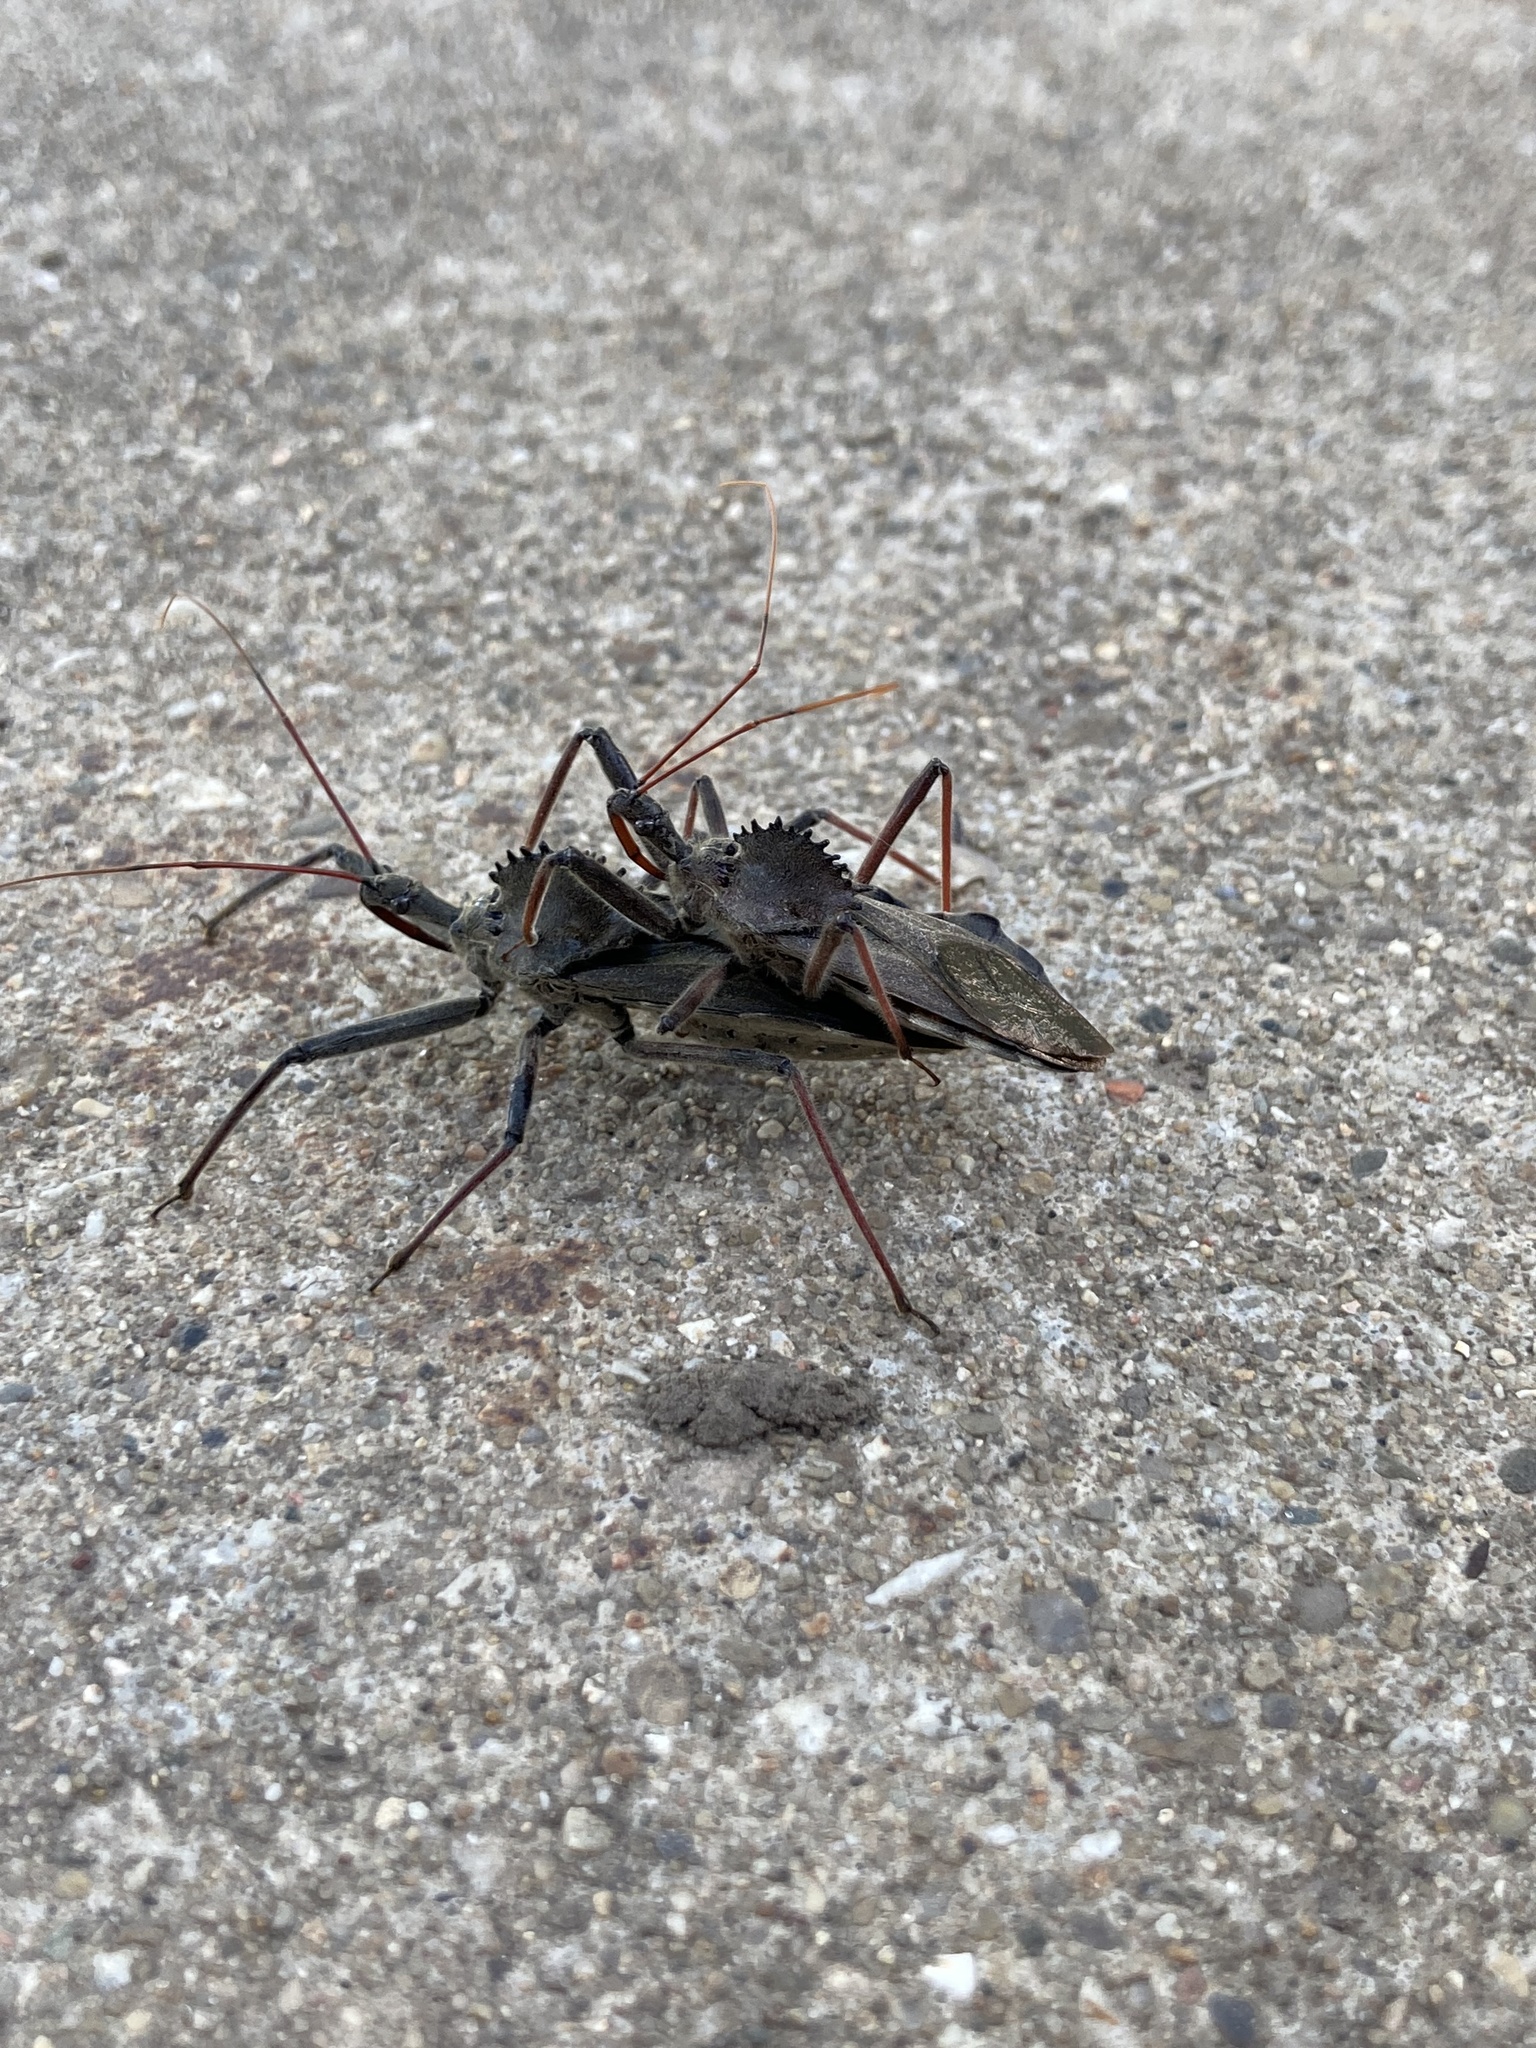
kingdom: Animalia
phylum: Arthropoda
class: Insecta
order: Hemiptera
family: Reduviidae
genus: Arilus
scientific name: Arilus cristatus
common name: North american wheel bug
